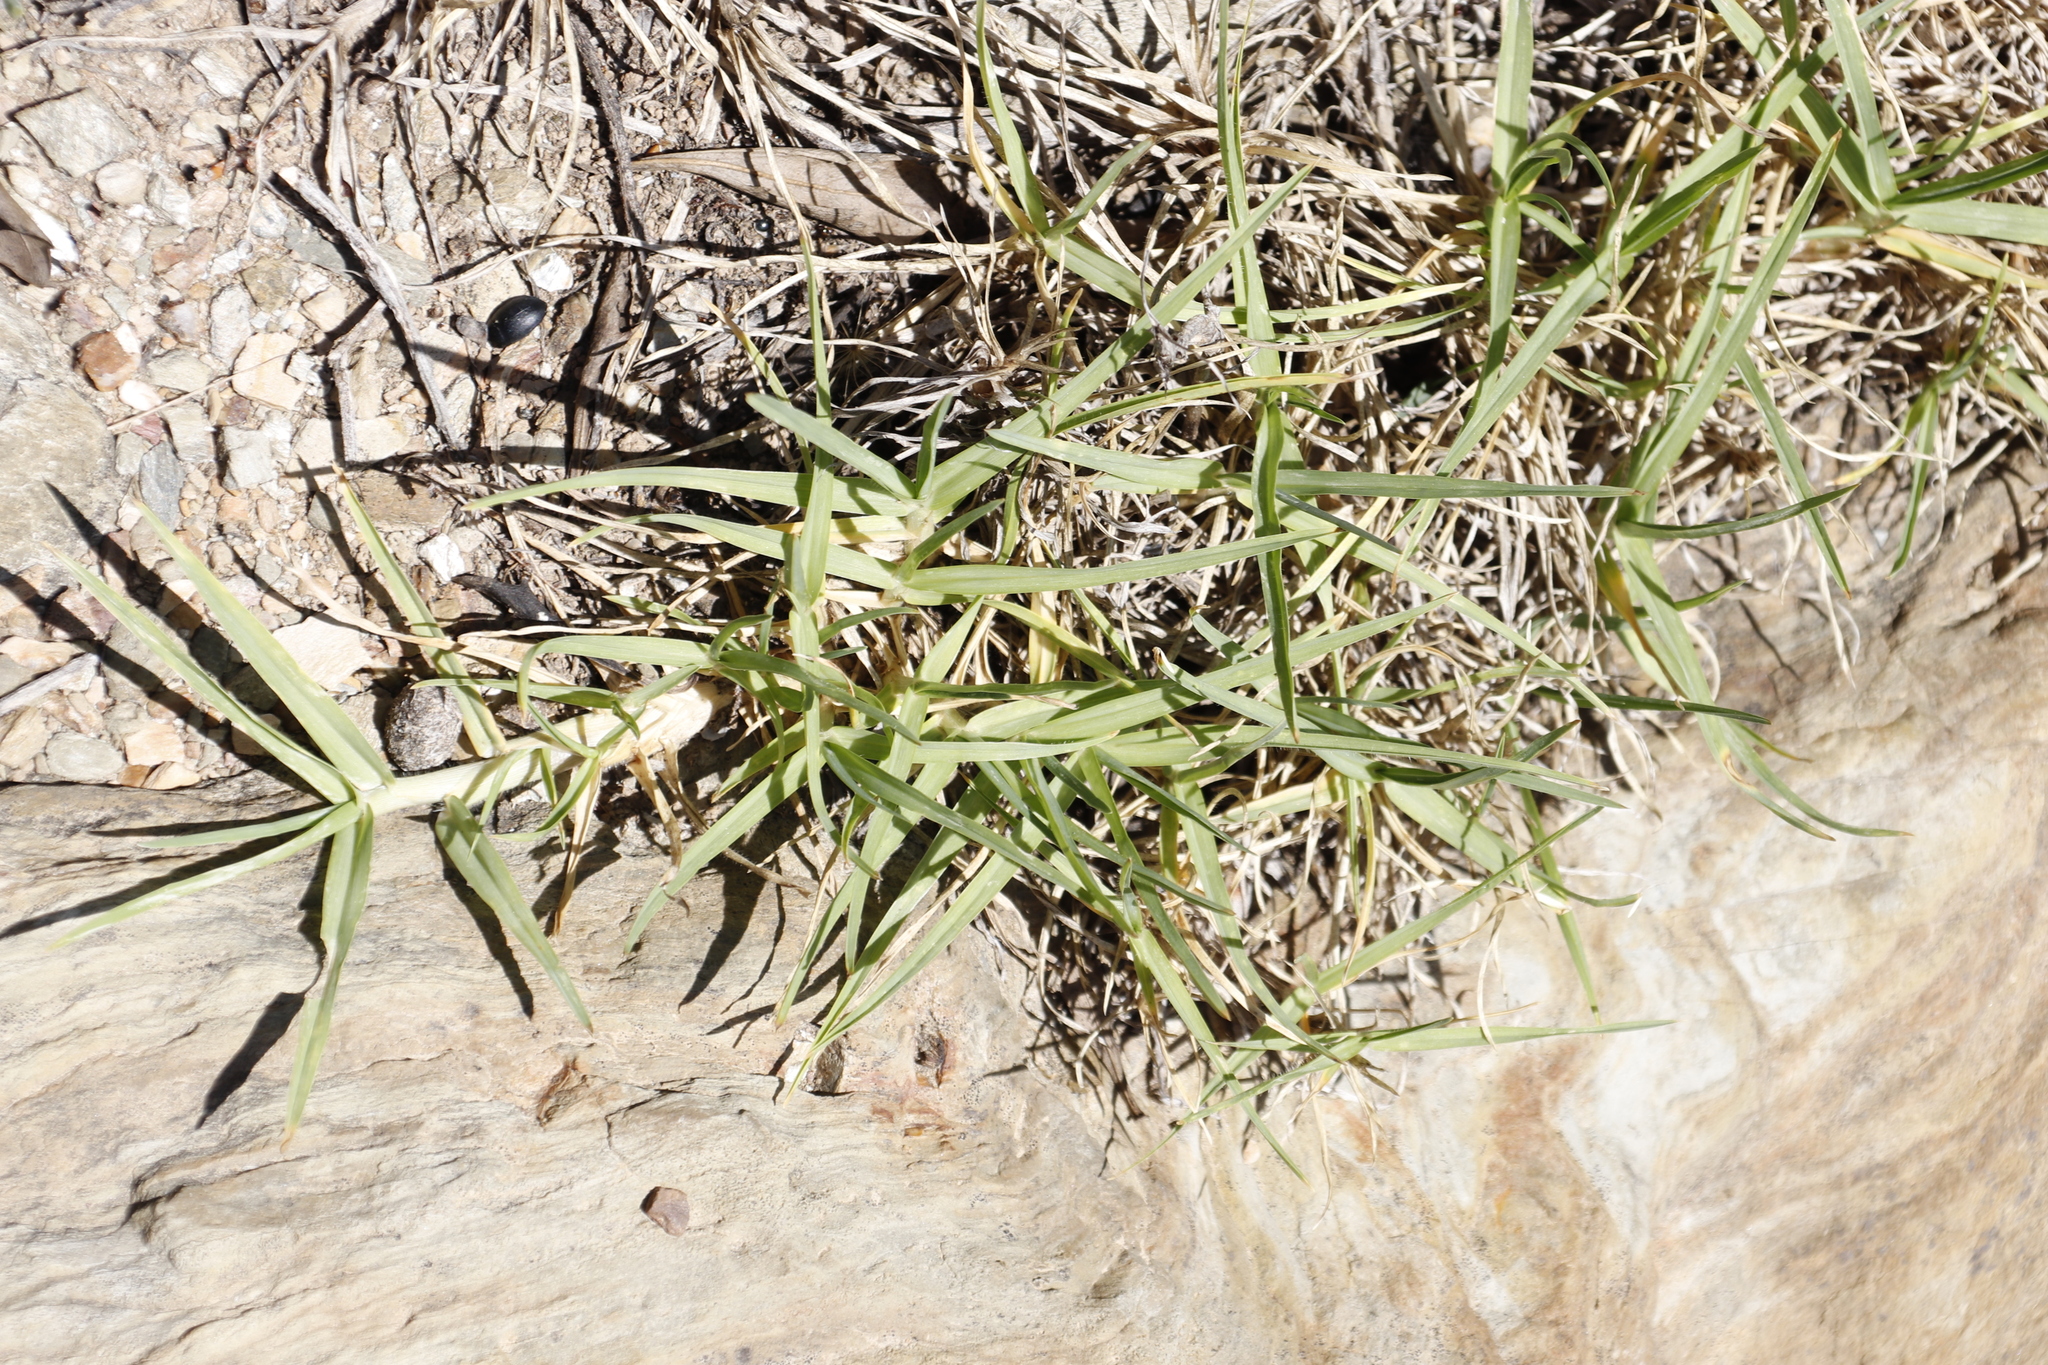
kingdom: Plantae
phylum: Tracheophyta
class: Liliopsida
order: Poales
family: Poaceae
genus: Cenchrus
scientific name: Cenchrus clandestinus
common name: Kikuyugrass
